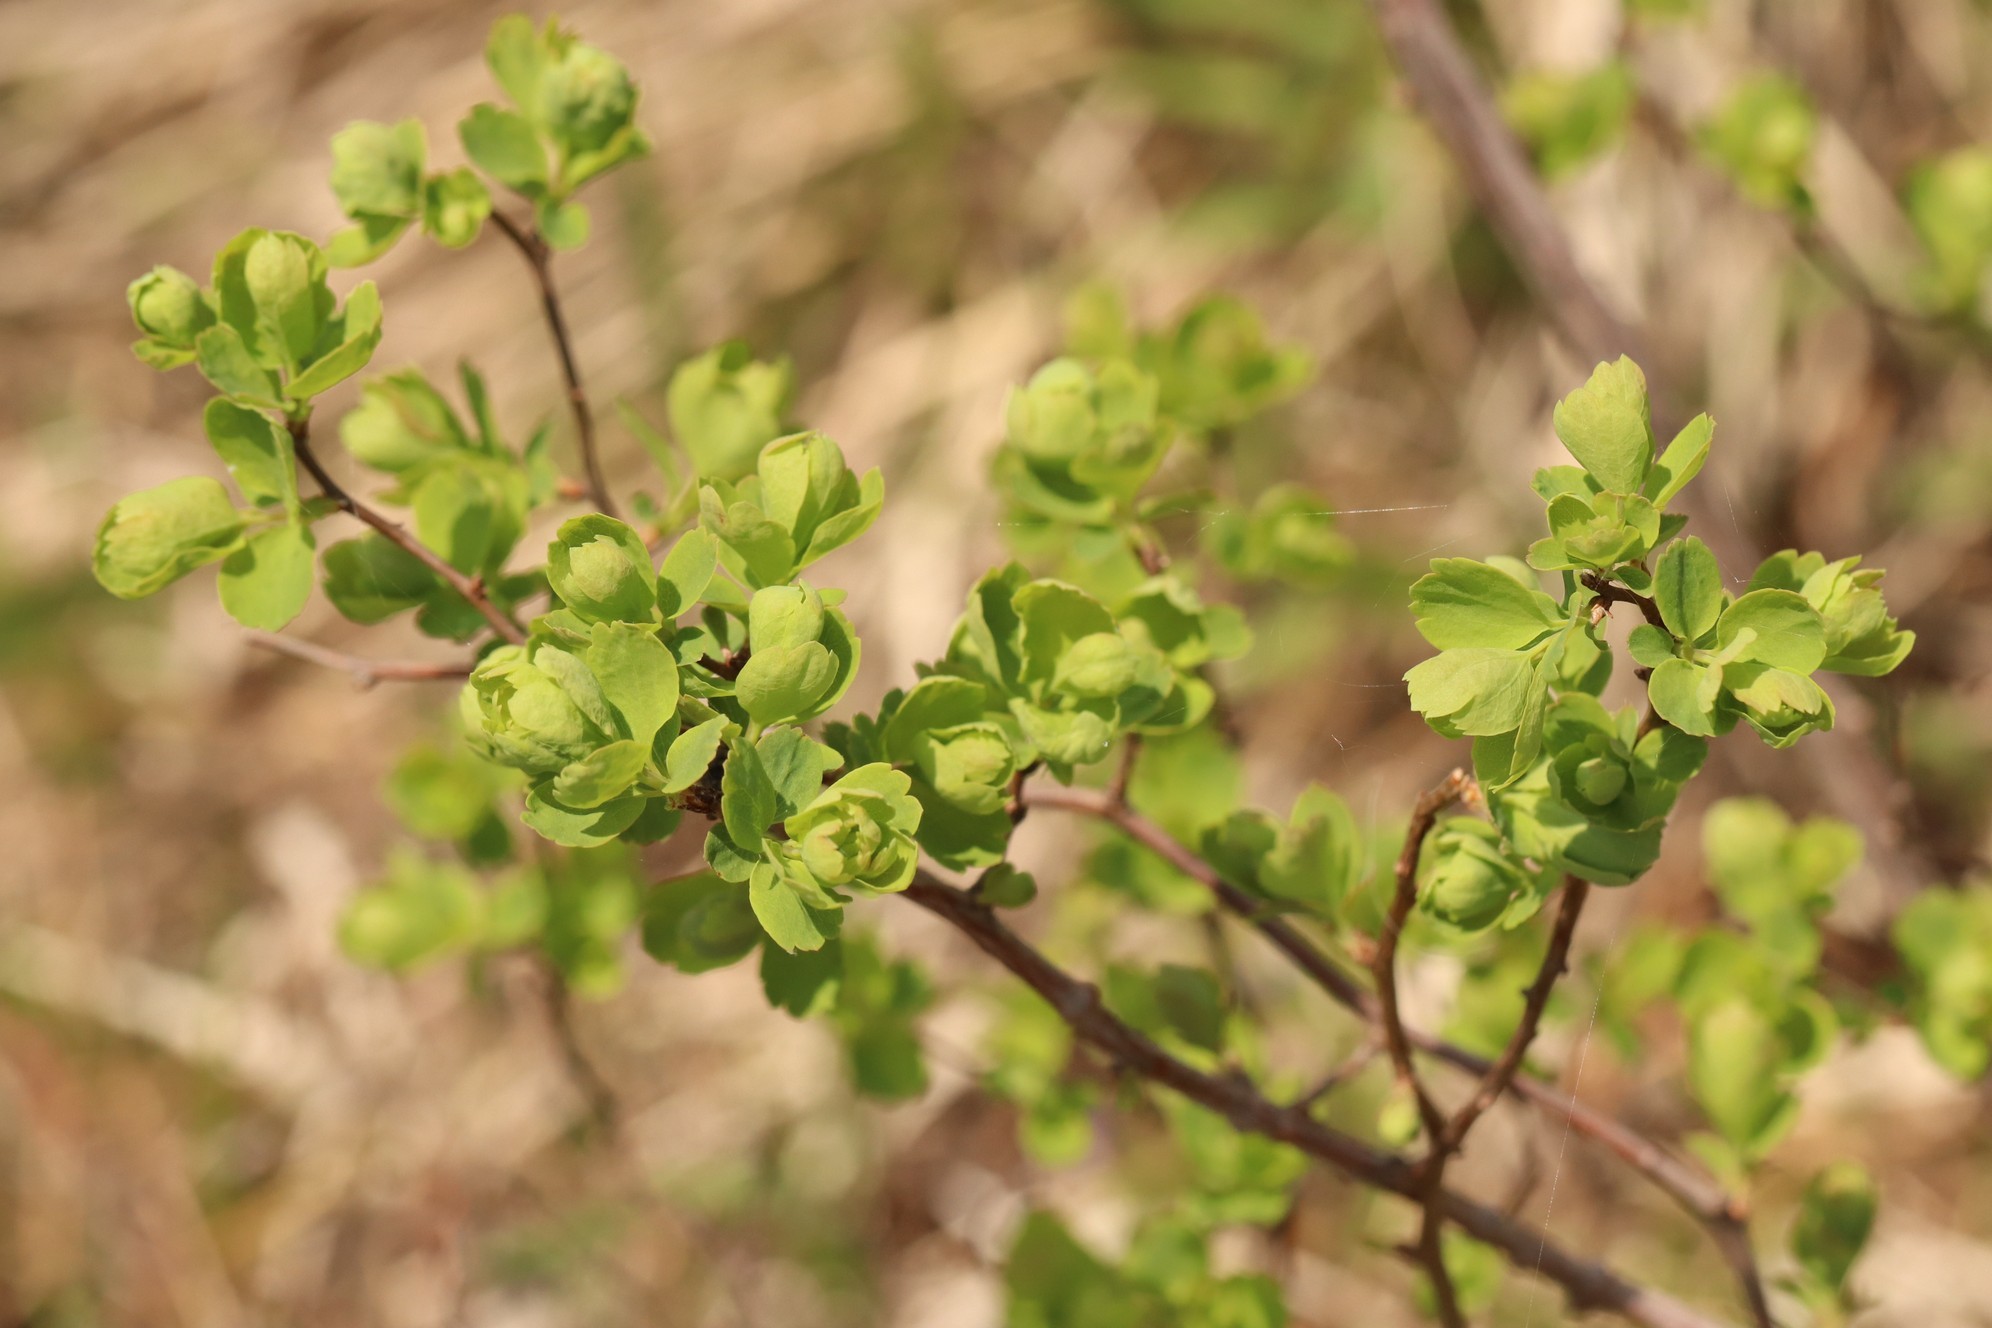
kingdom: Plantae
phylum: Tracheophyta
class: Magnoliopsida
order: Rosales
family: Rosaceae
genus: Spiraea
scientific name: Spiraea trilobata
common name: Asian meadowsweet
